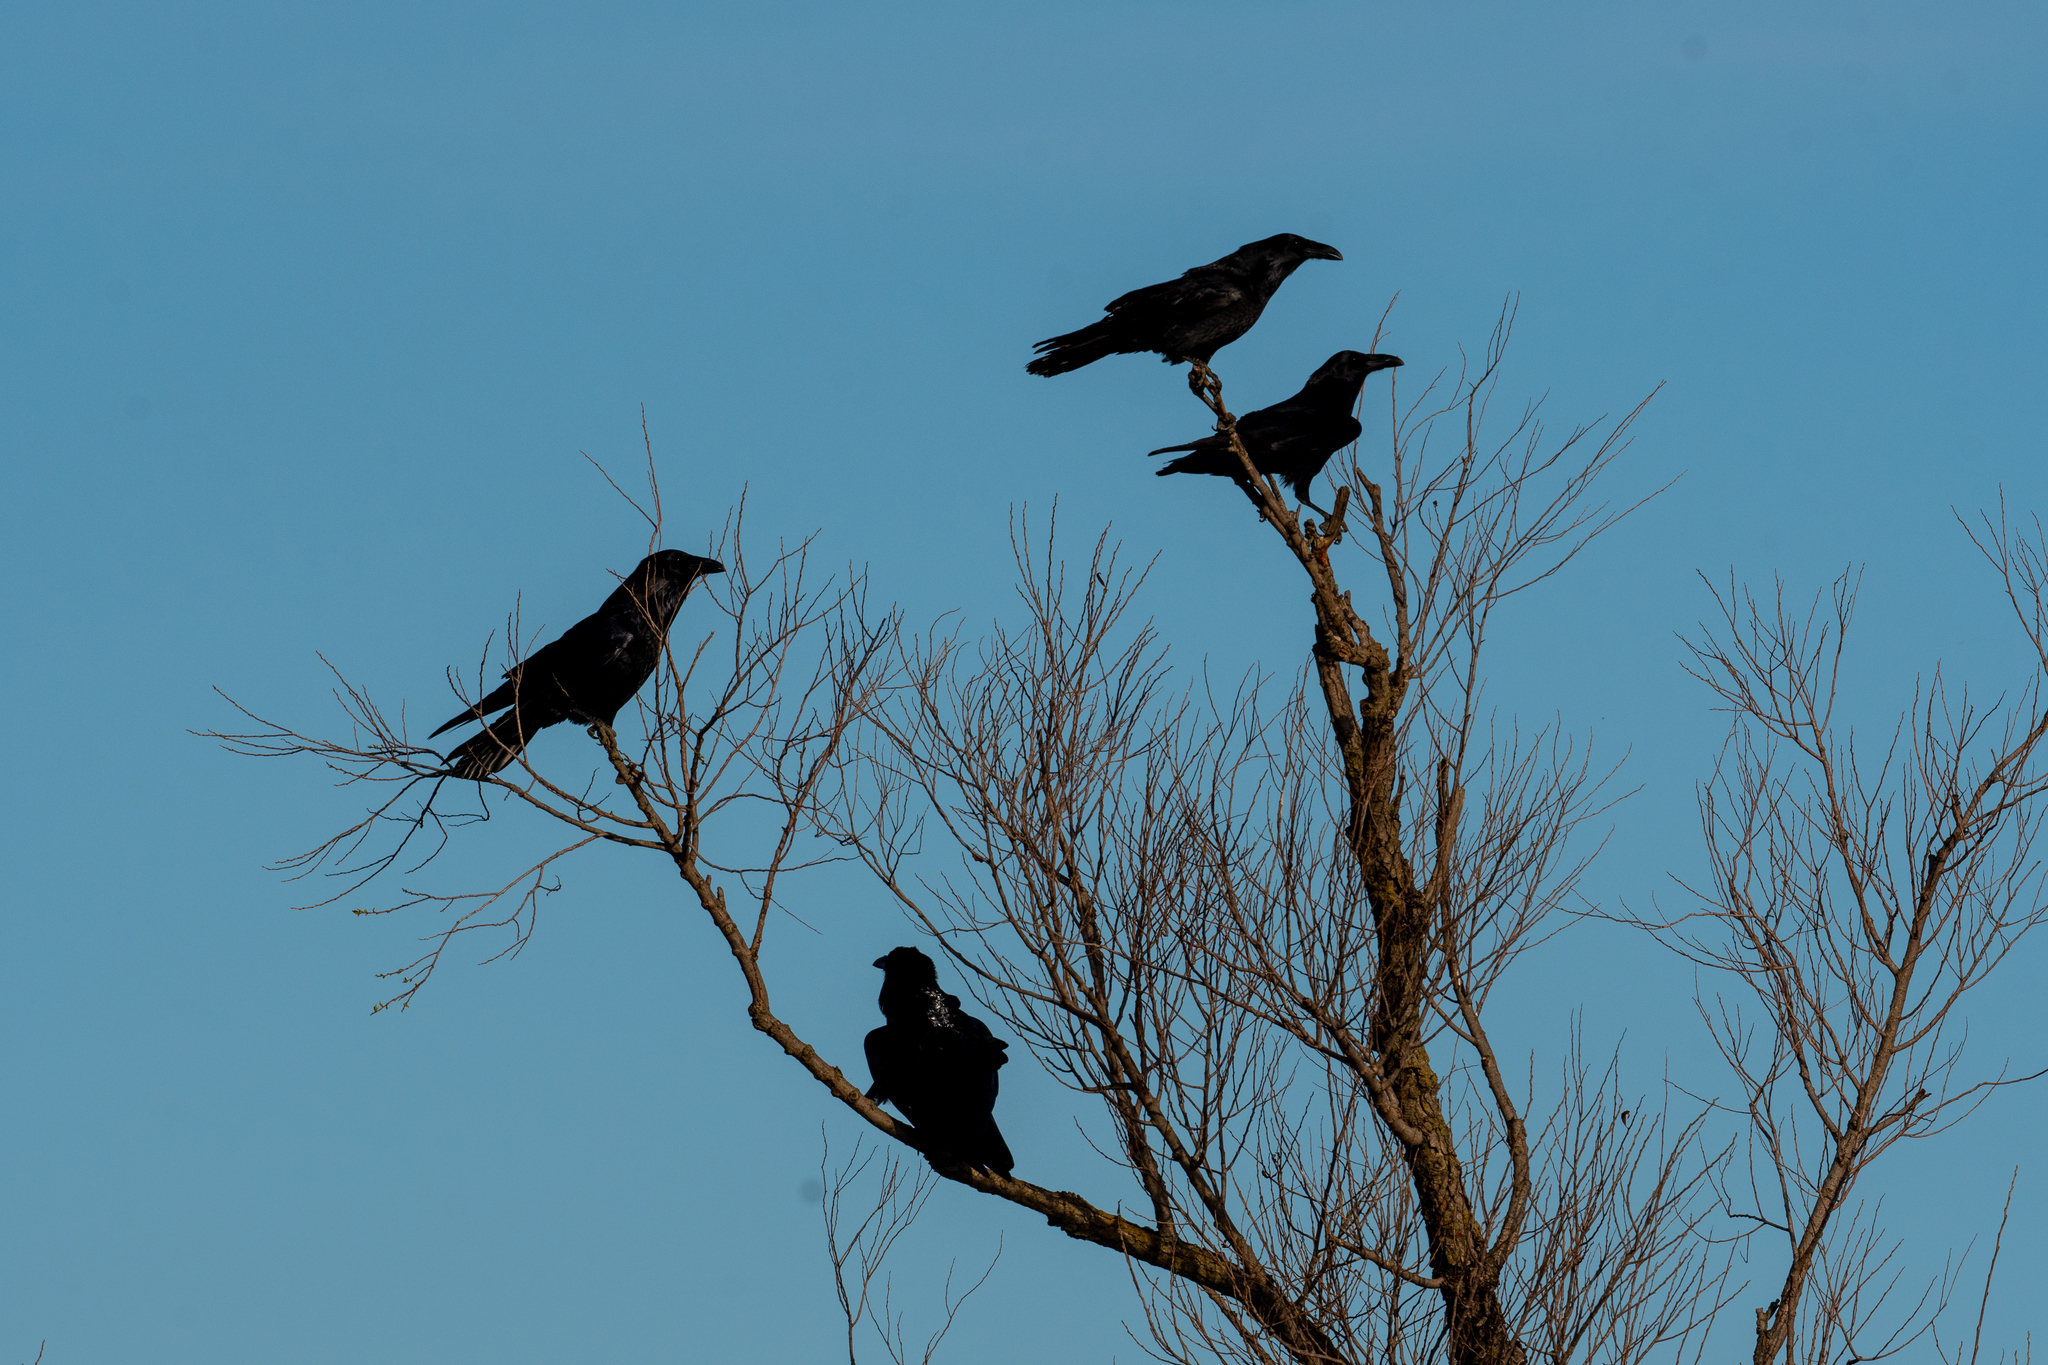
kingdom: Animalia
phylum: Chordata
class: Aves
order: Passeriformes
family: Corvidae
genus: Corvus
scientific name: Corvus corax
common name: Common raven
